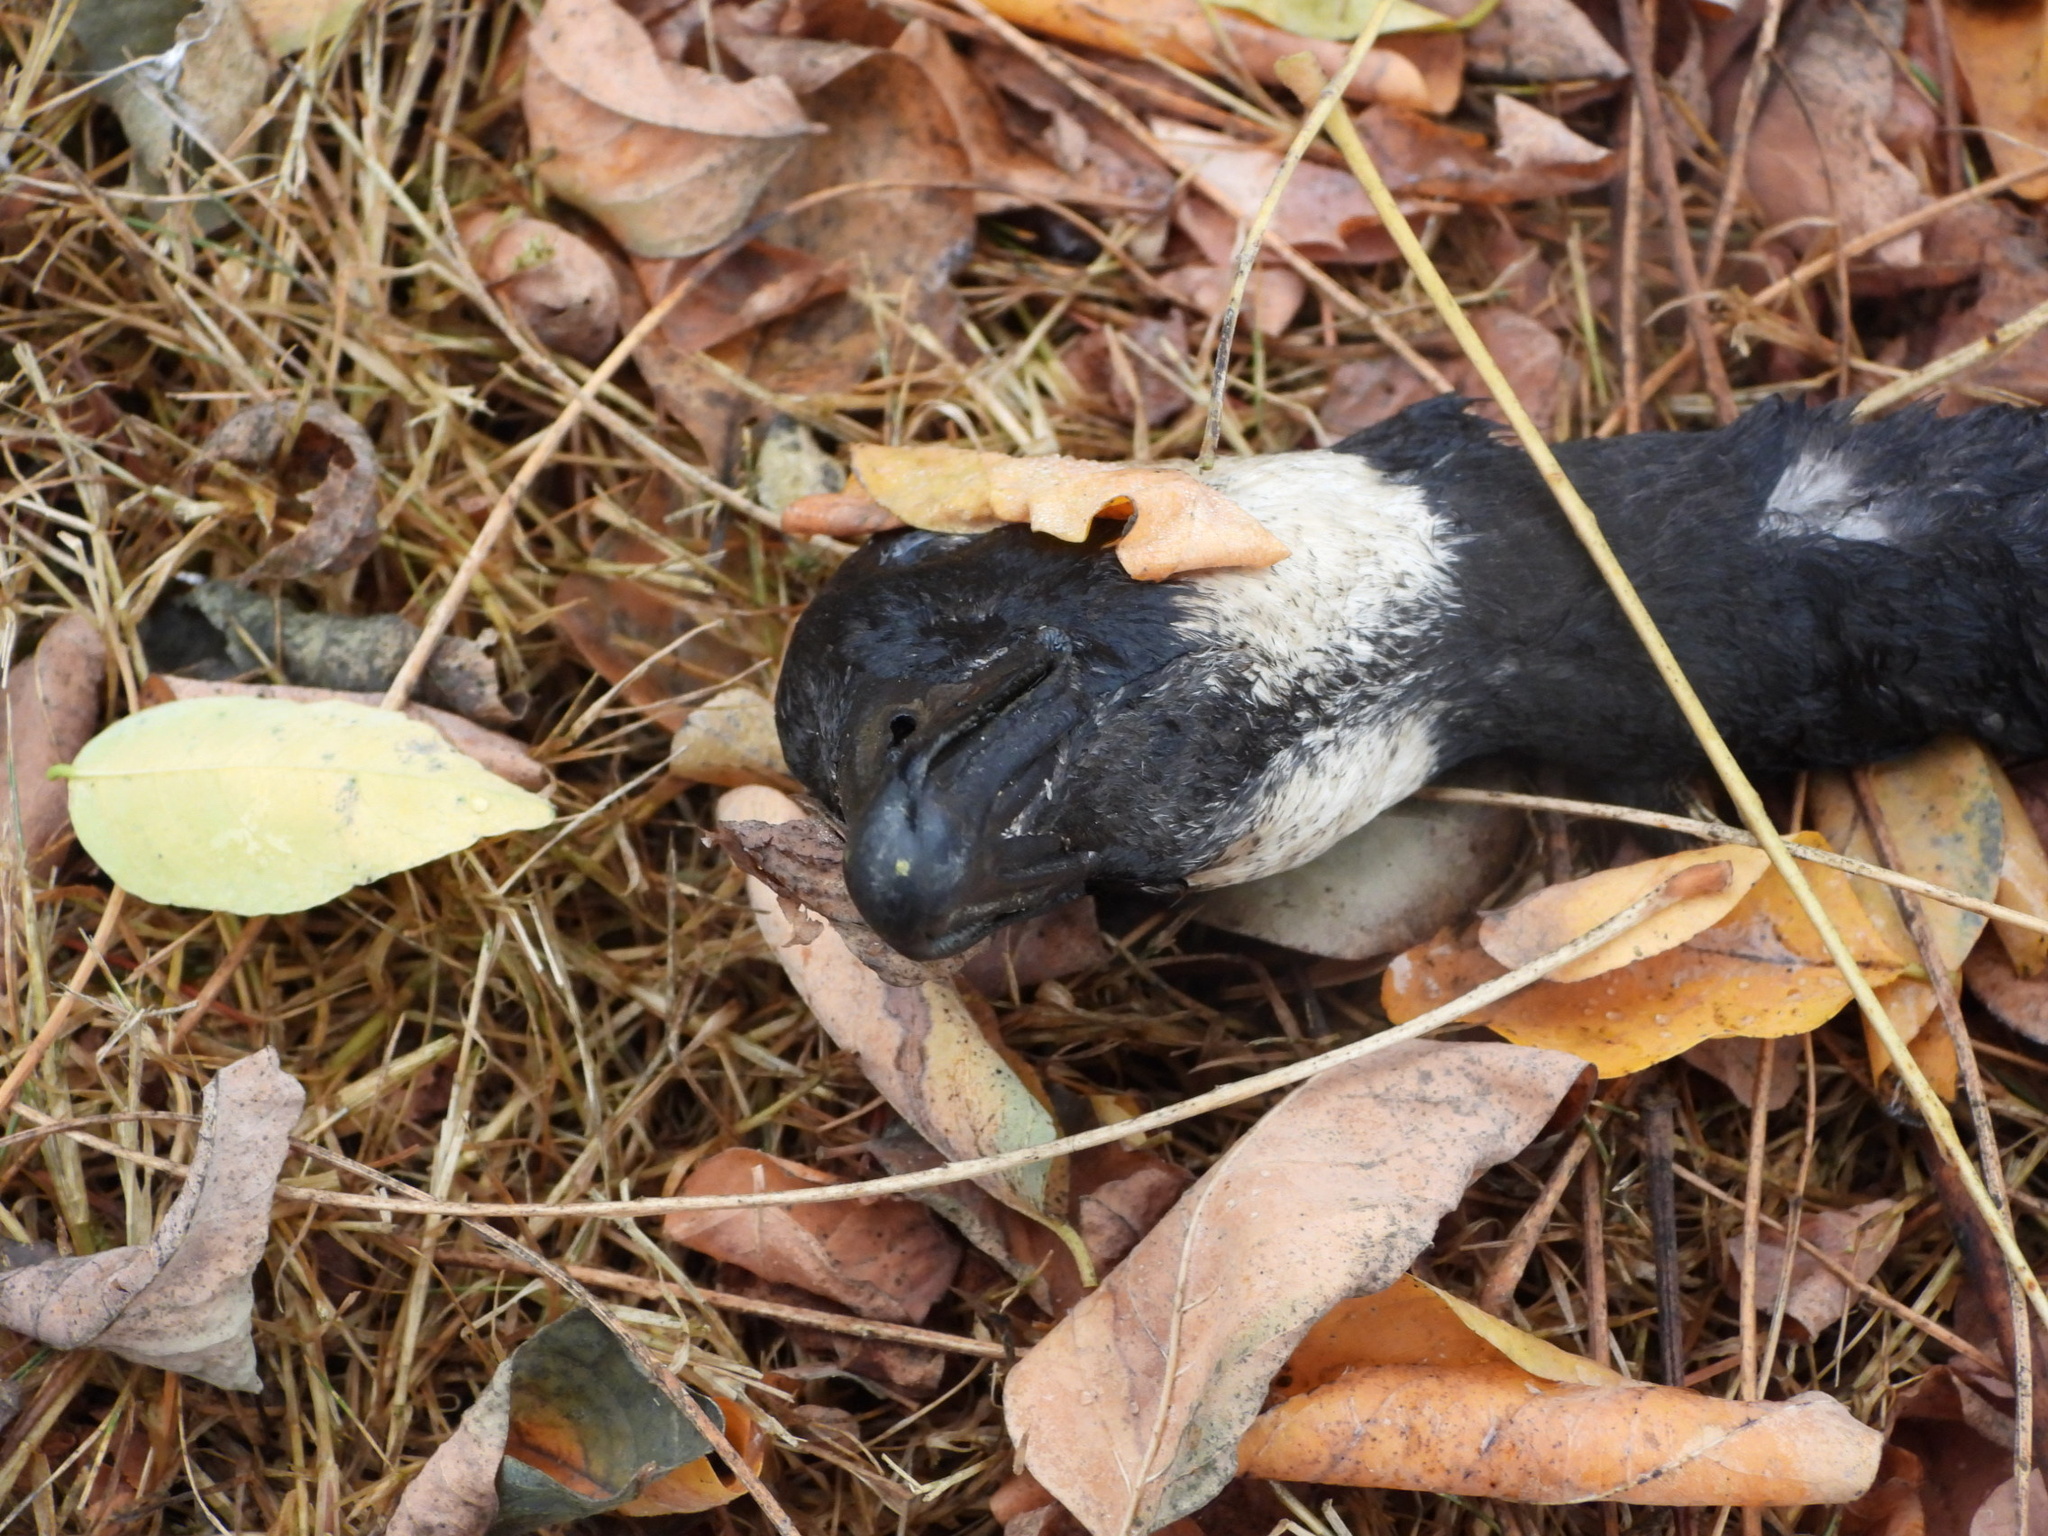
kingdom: Animalia
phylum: Chordata
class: Aves
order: Anseriformes
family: Anatidae
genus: Branta
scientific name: Branta hutchinsii
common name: Cackling goose
